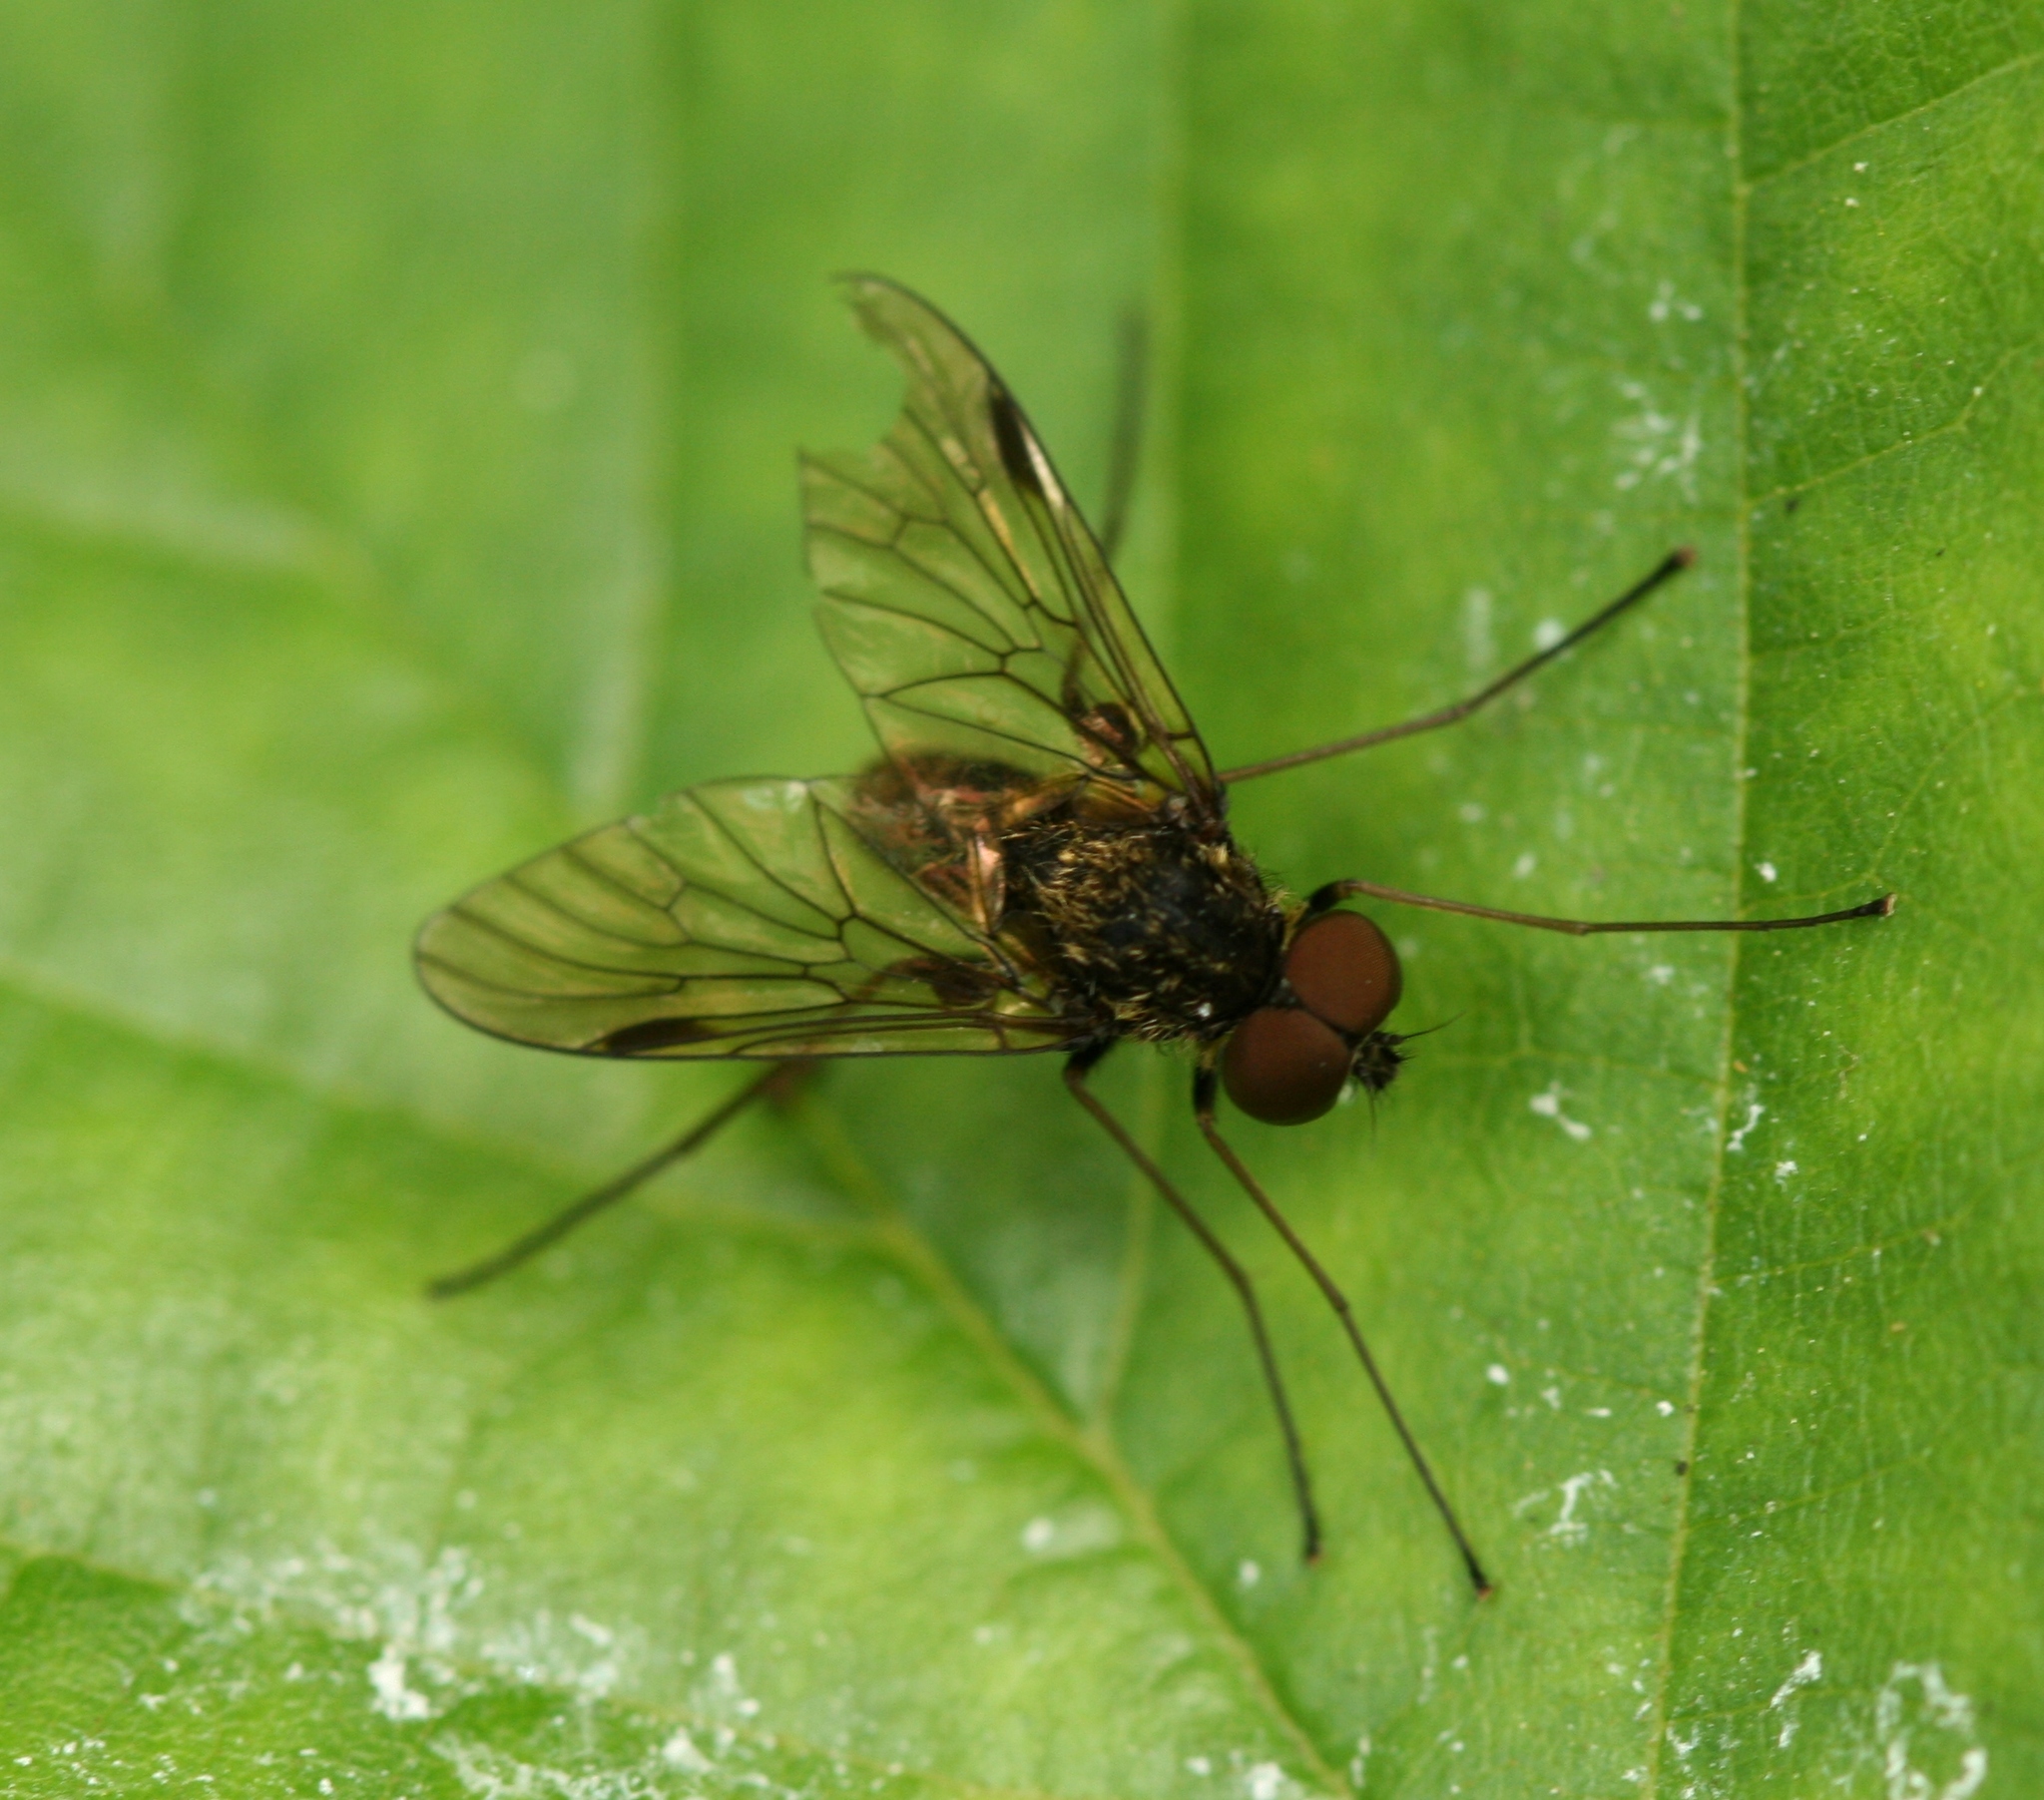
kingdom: Animalia
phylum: Arthropoda
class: Insecta
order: Diptera
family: Rhagionidae
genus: Chrysopilus
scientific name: Chrysopilus cristatus
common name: Black snipefly
